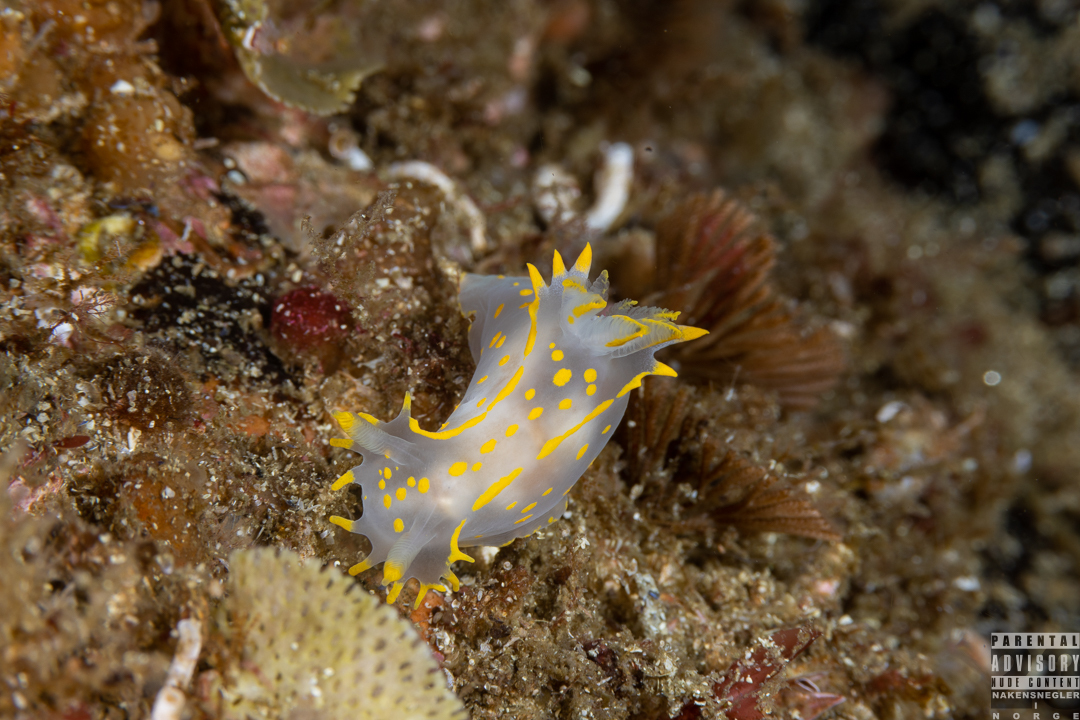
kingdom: Animalia
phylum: Mollusca
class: Gastropoda
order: Nudibranchia
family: Polyceridae
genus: Polycera
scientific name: Polycera faeroensis
